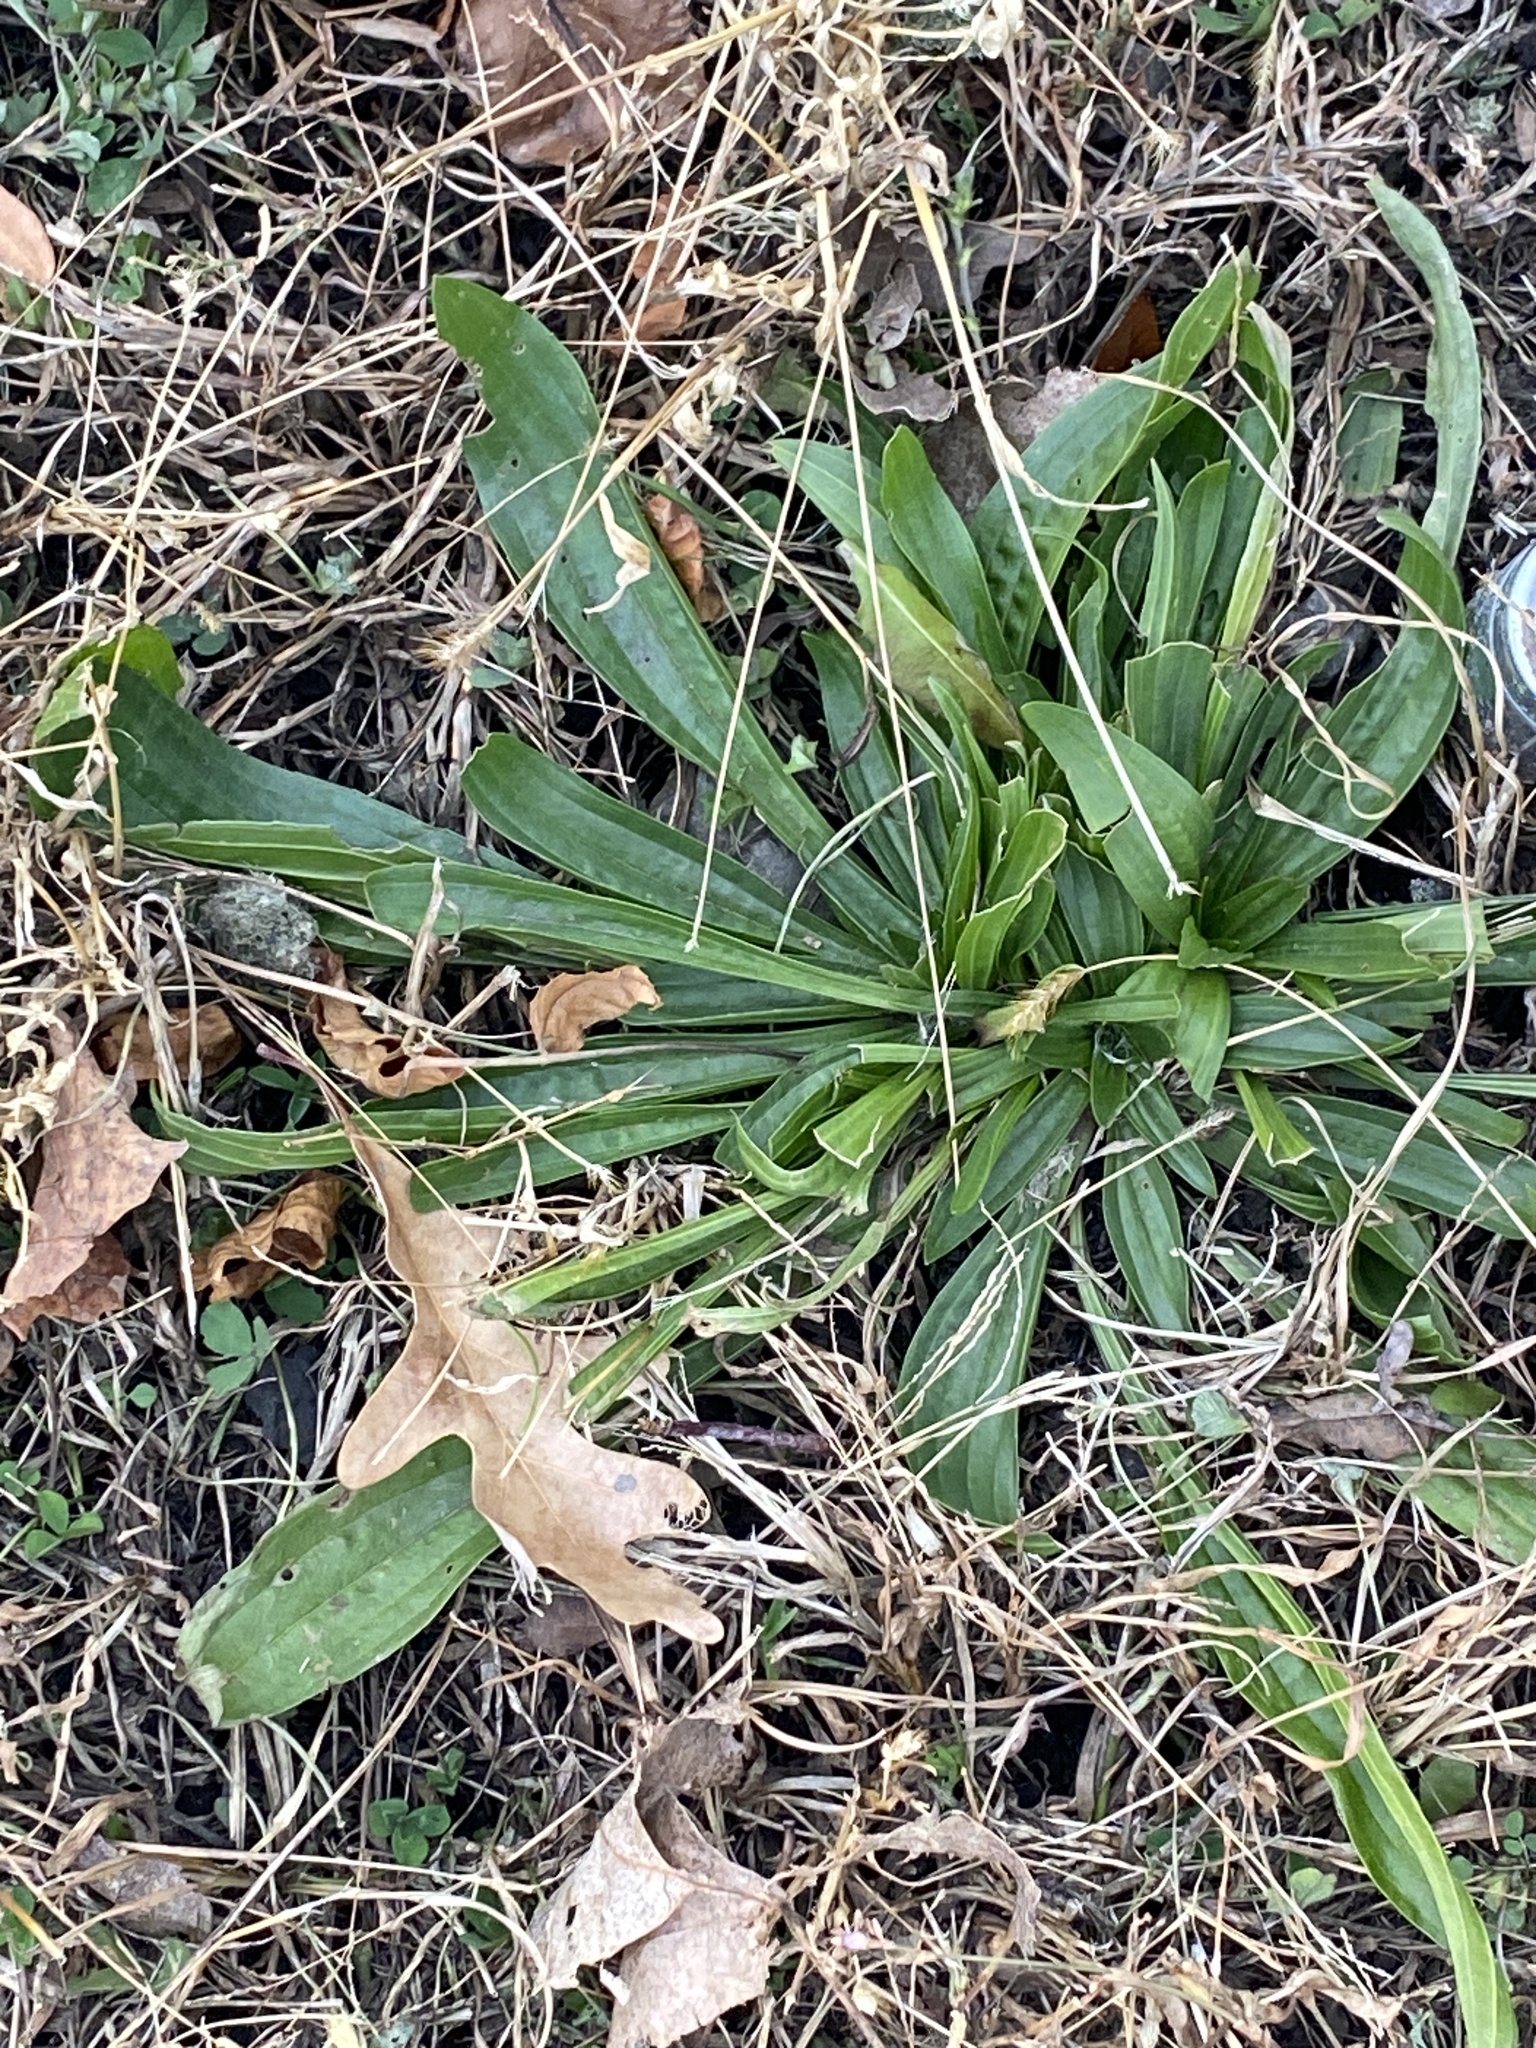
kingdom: Plantae
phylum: Tracheophyta
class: Magnoliopsida
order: Lamiales
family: Plantaginaceae
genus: Plantago
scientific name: Plantago lanceolata
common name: Ribwort plantain
